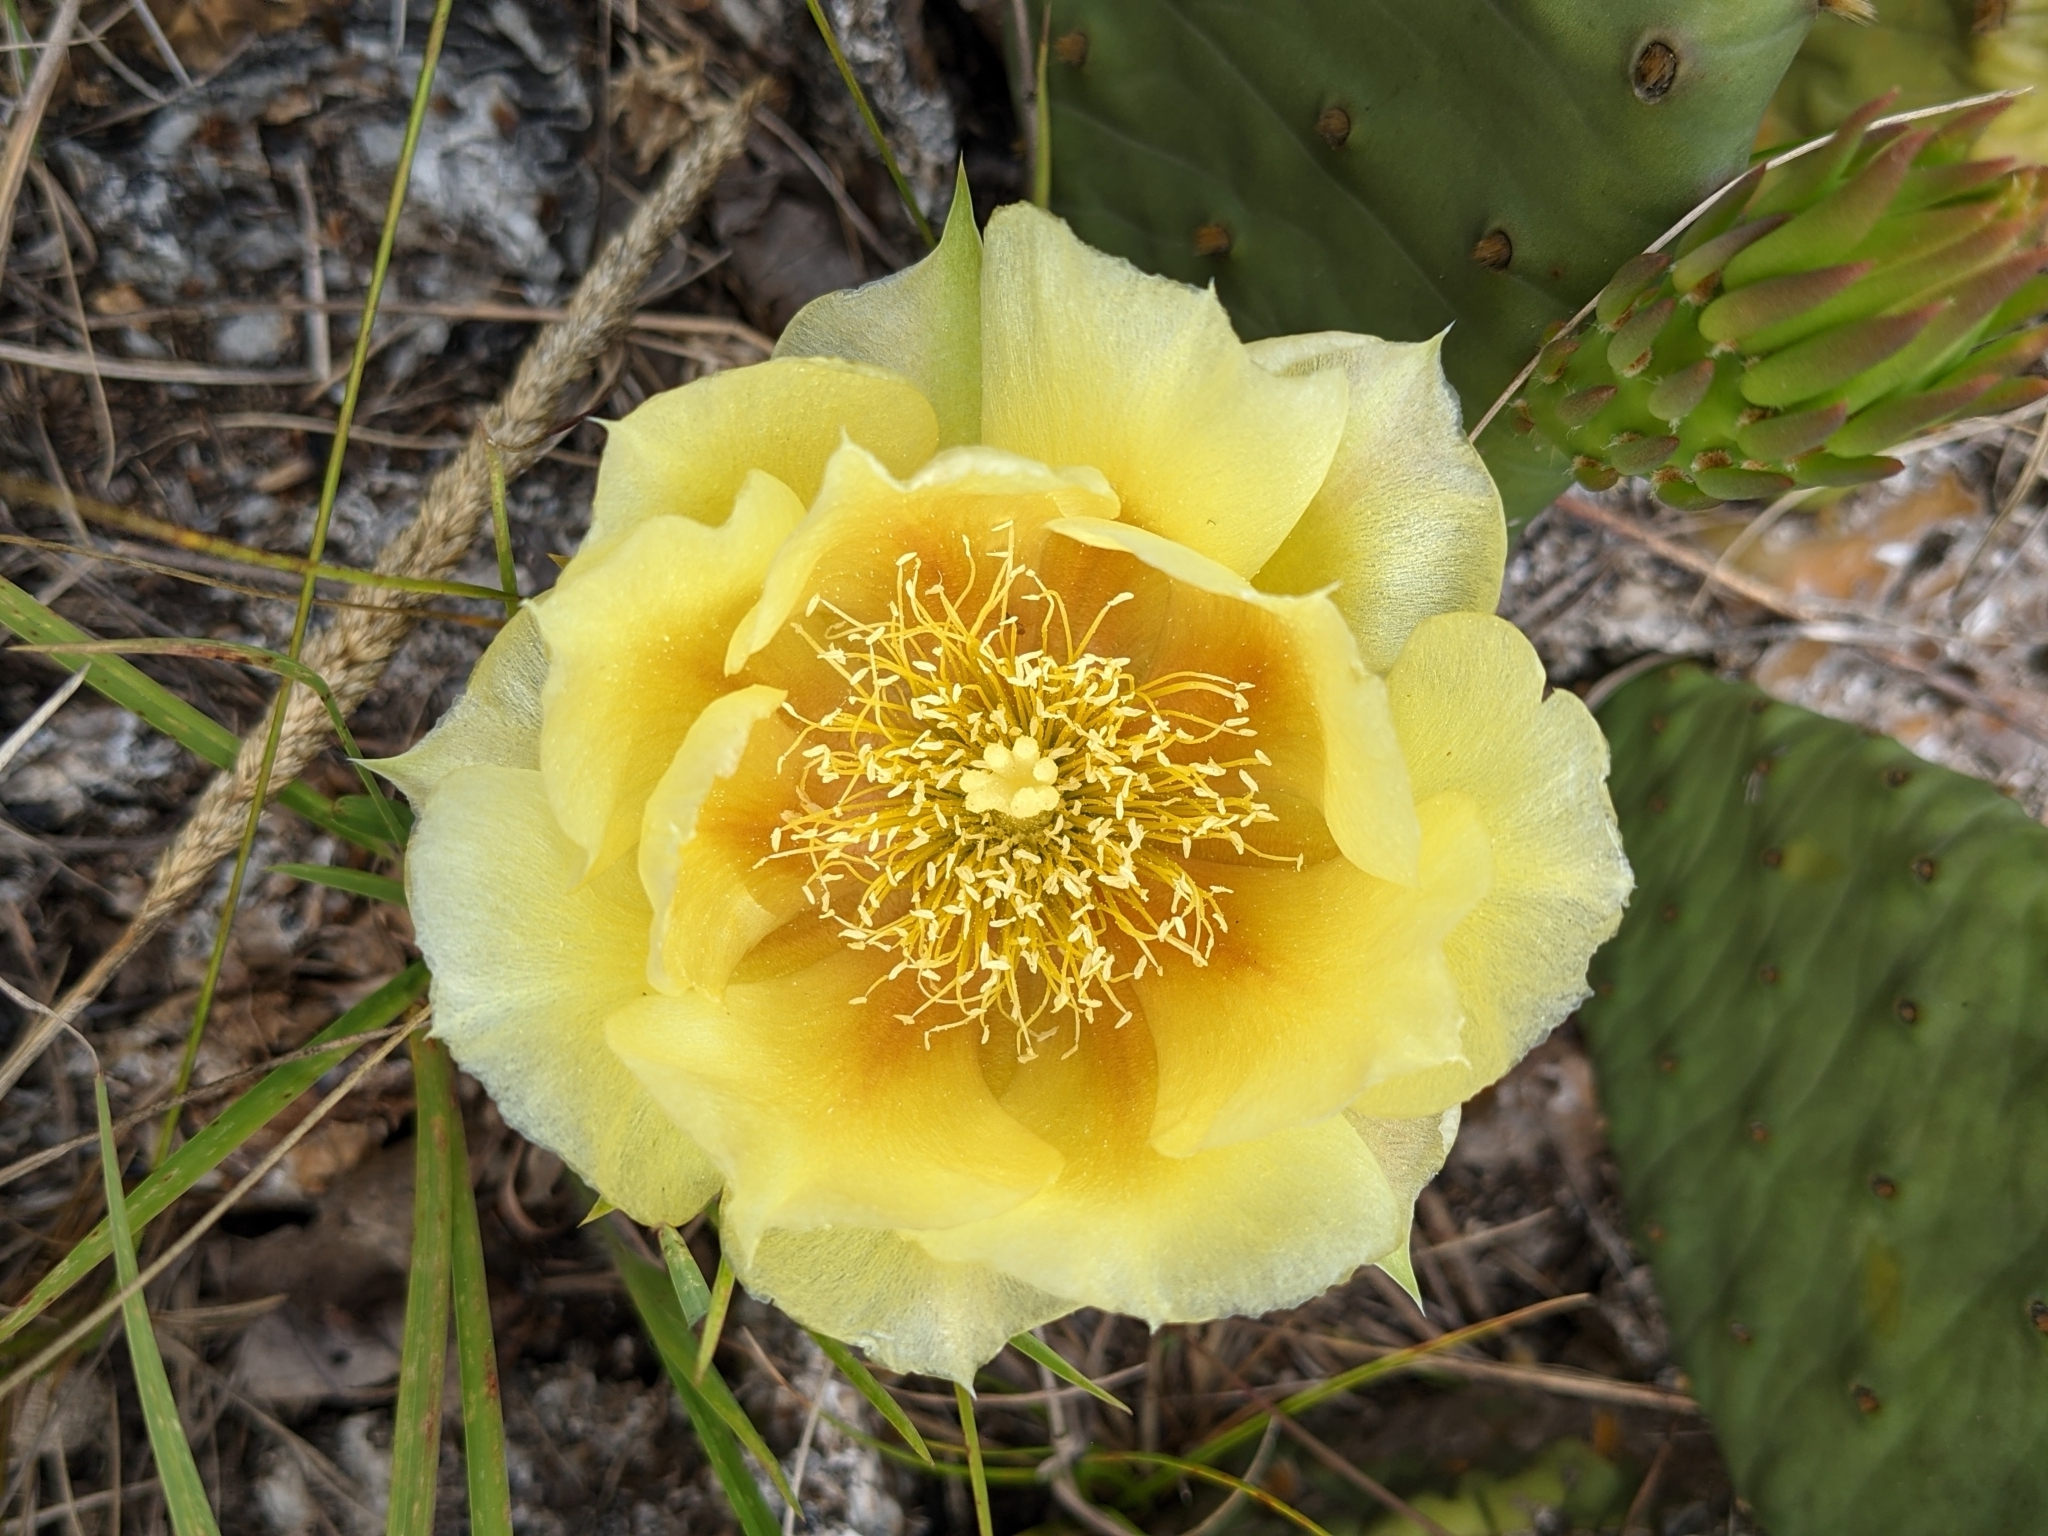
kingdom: Plantae
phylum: Tracheophyta
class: Magnoliopsida
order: Caryophyllales
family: Cactaceae
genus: Opuntia
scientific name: Opuntia humifusa
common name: Eastern prickly-pear
